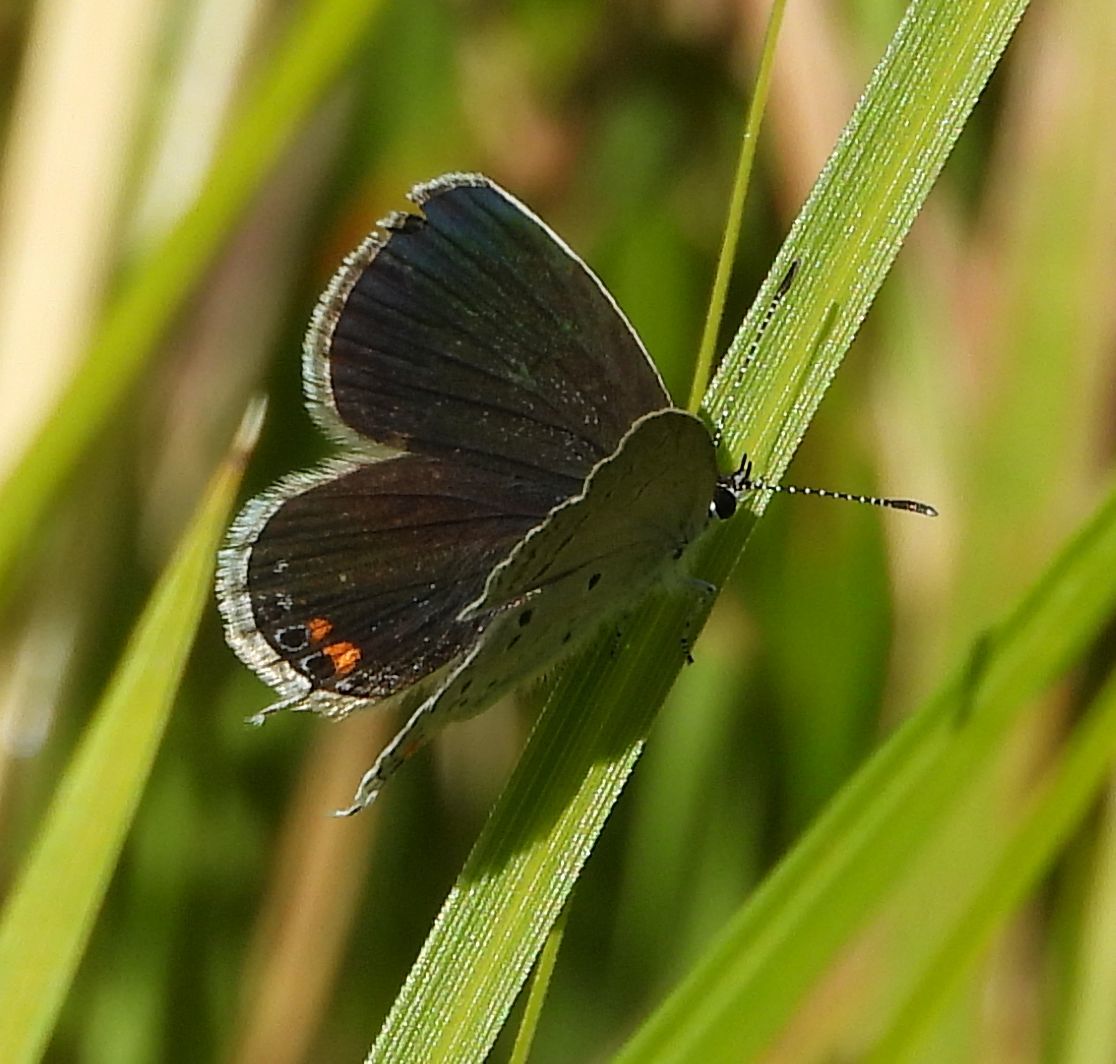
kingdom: Animalia
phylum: Arthropoda
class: Insecta
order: Lepidoptera
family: Lycaenidae
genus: Elkalyce
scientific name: Elkalyce comyntas
